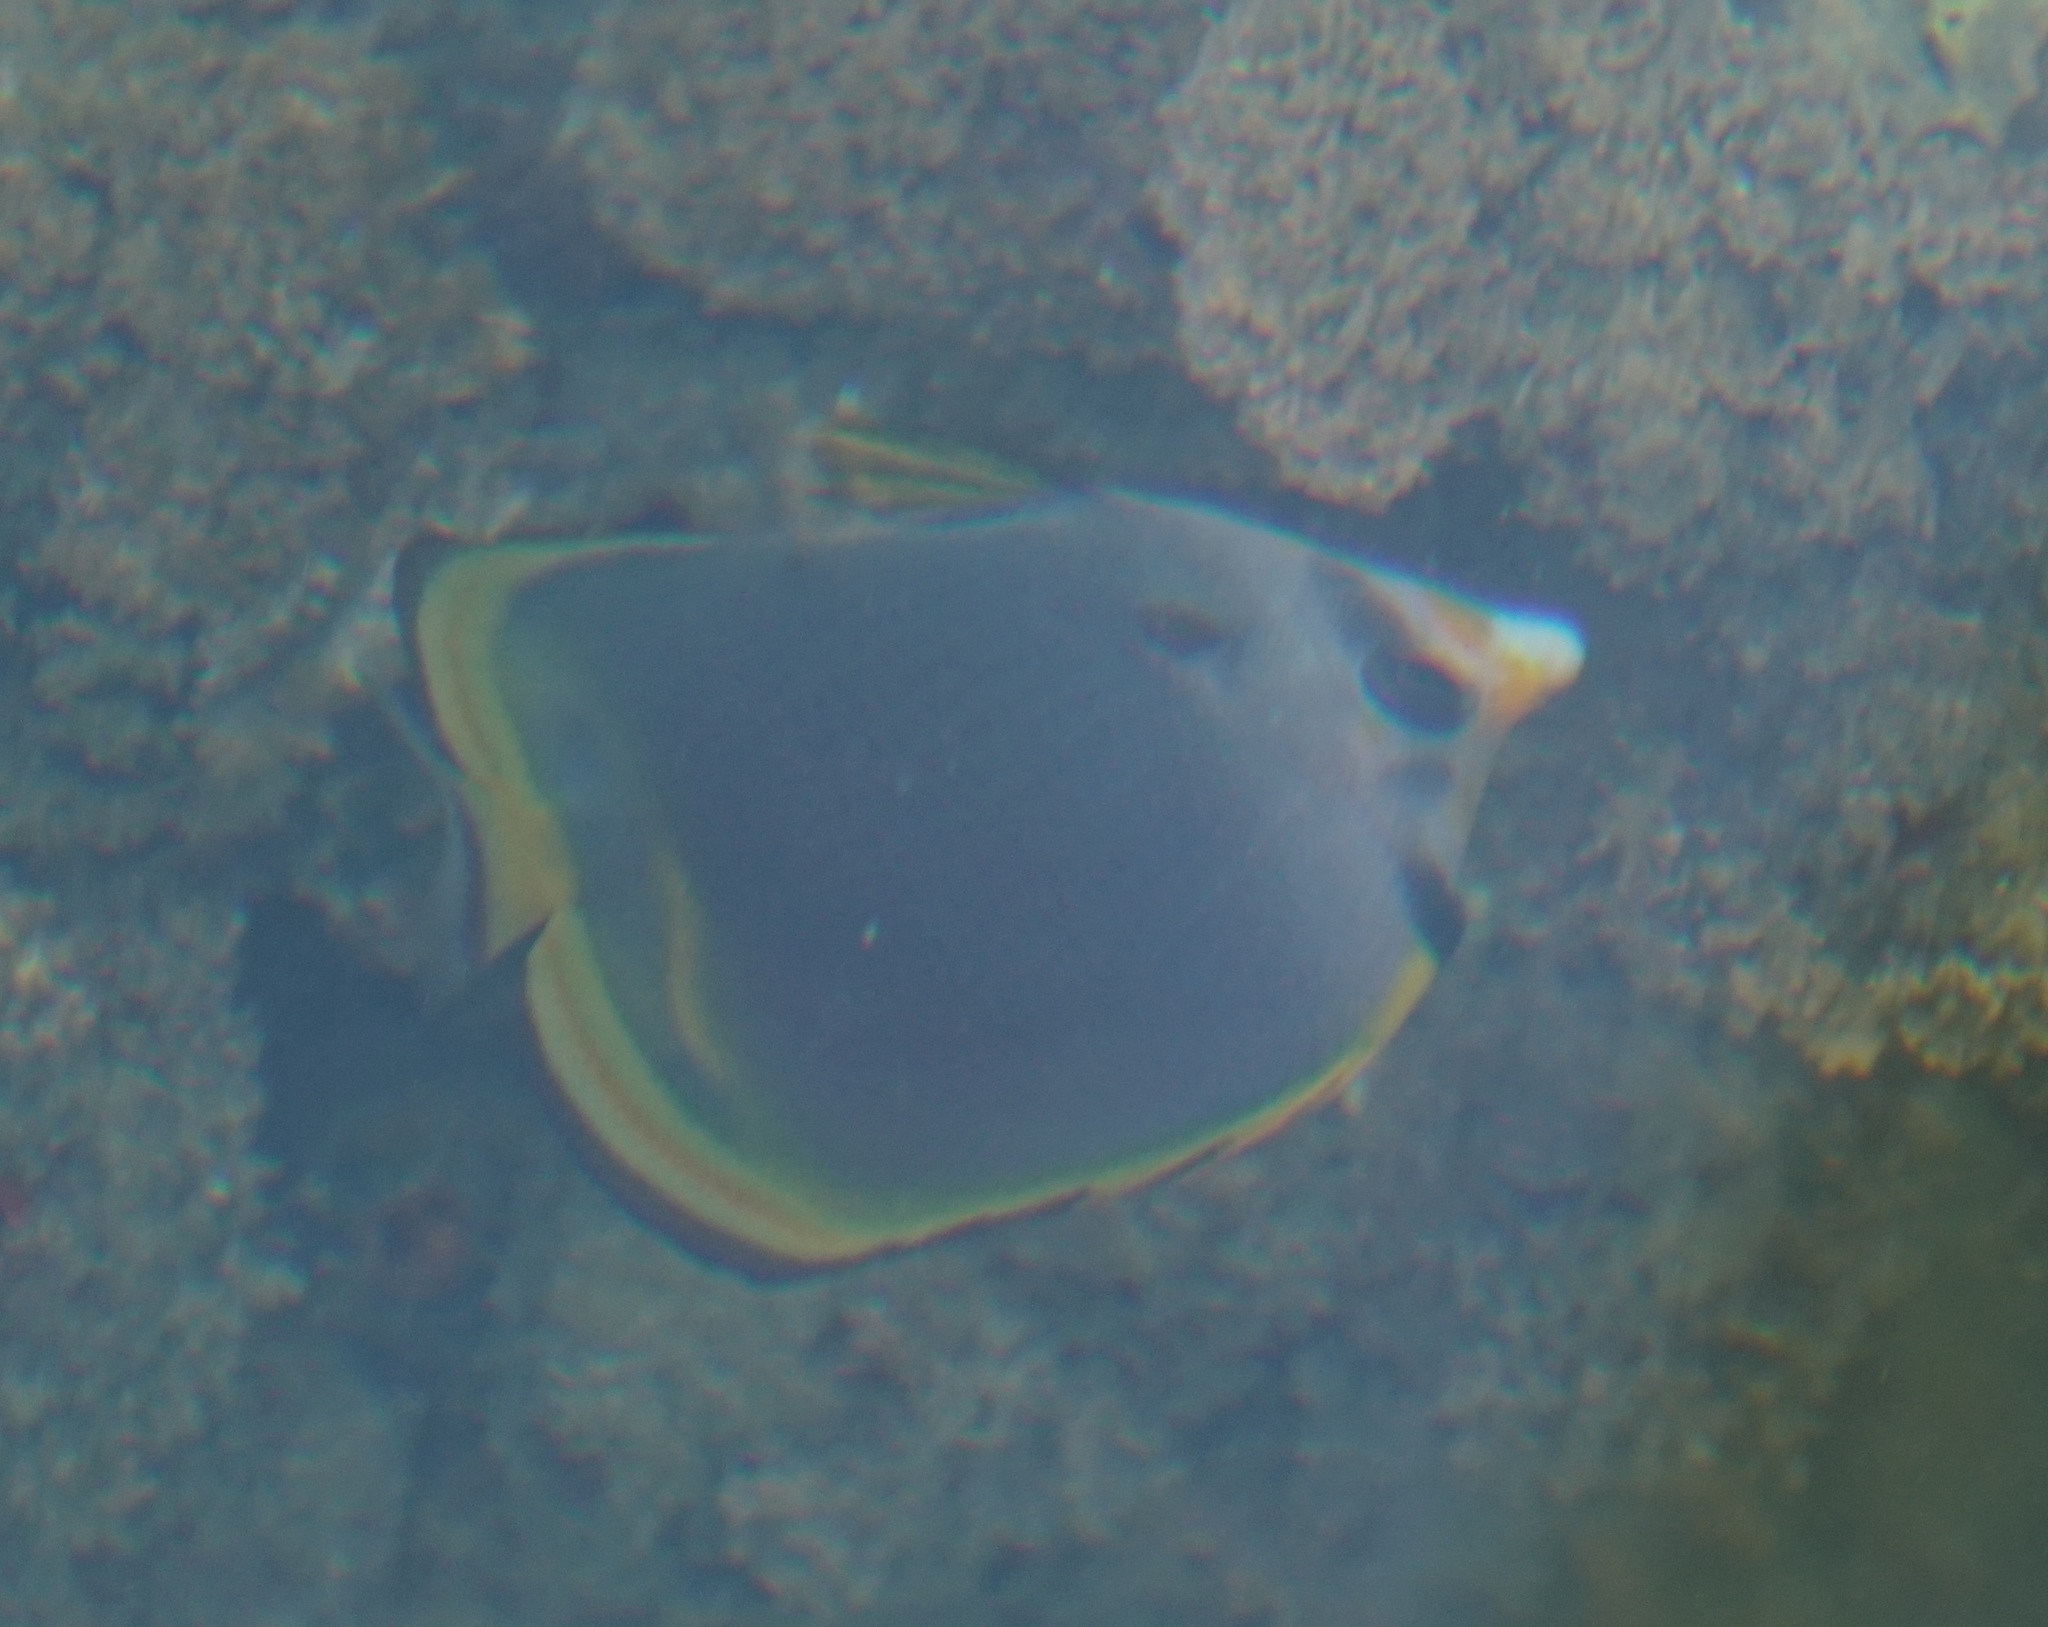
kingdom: Animalia
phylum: Chordata
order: Perciformes
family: Chaetodontidae
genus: Chaetodon
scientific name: Chaetodon flavirostris
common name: Black butterflyfish
